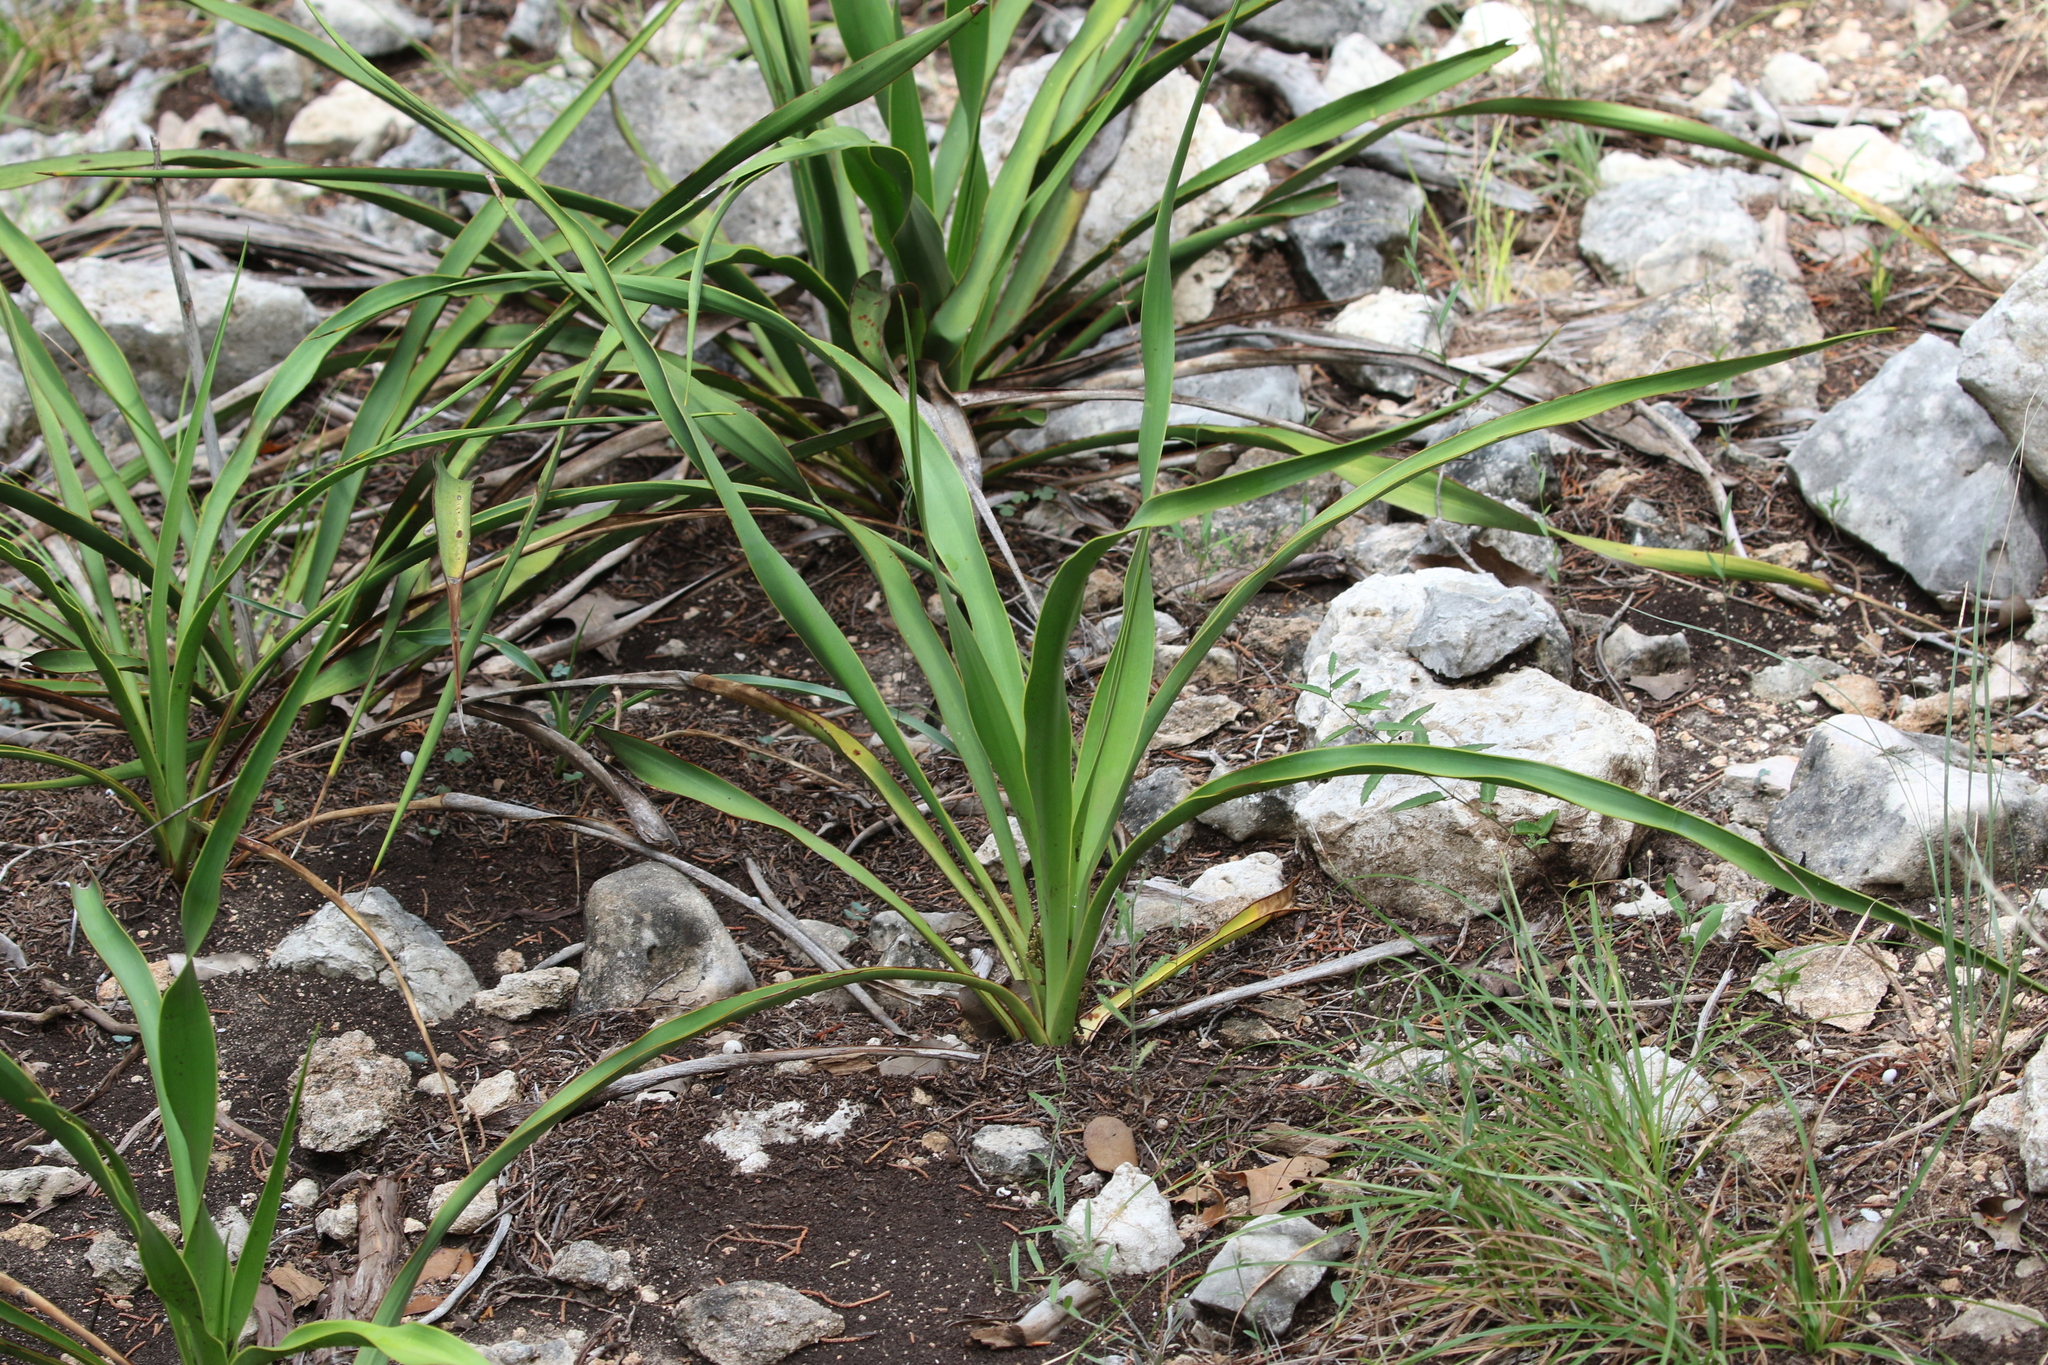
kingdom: Plantae
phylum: Tracheophyta
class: Liliopsida
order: Asparagales
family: Asparagaceae
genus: Yucca
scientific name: Yucca rupicola
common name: Twisted-leaf spanish-dagger
